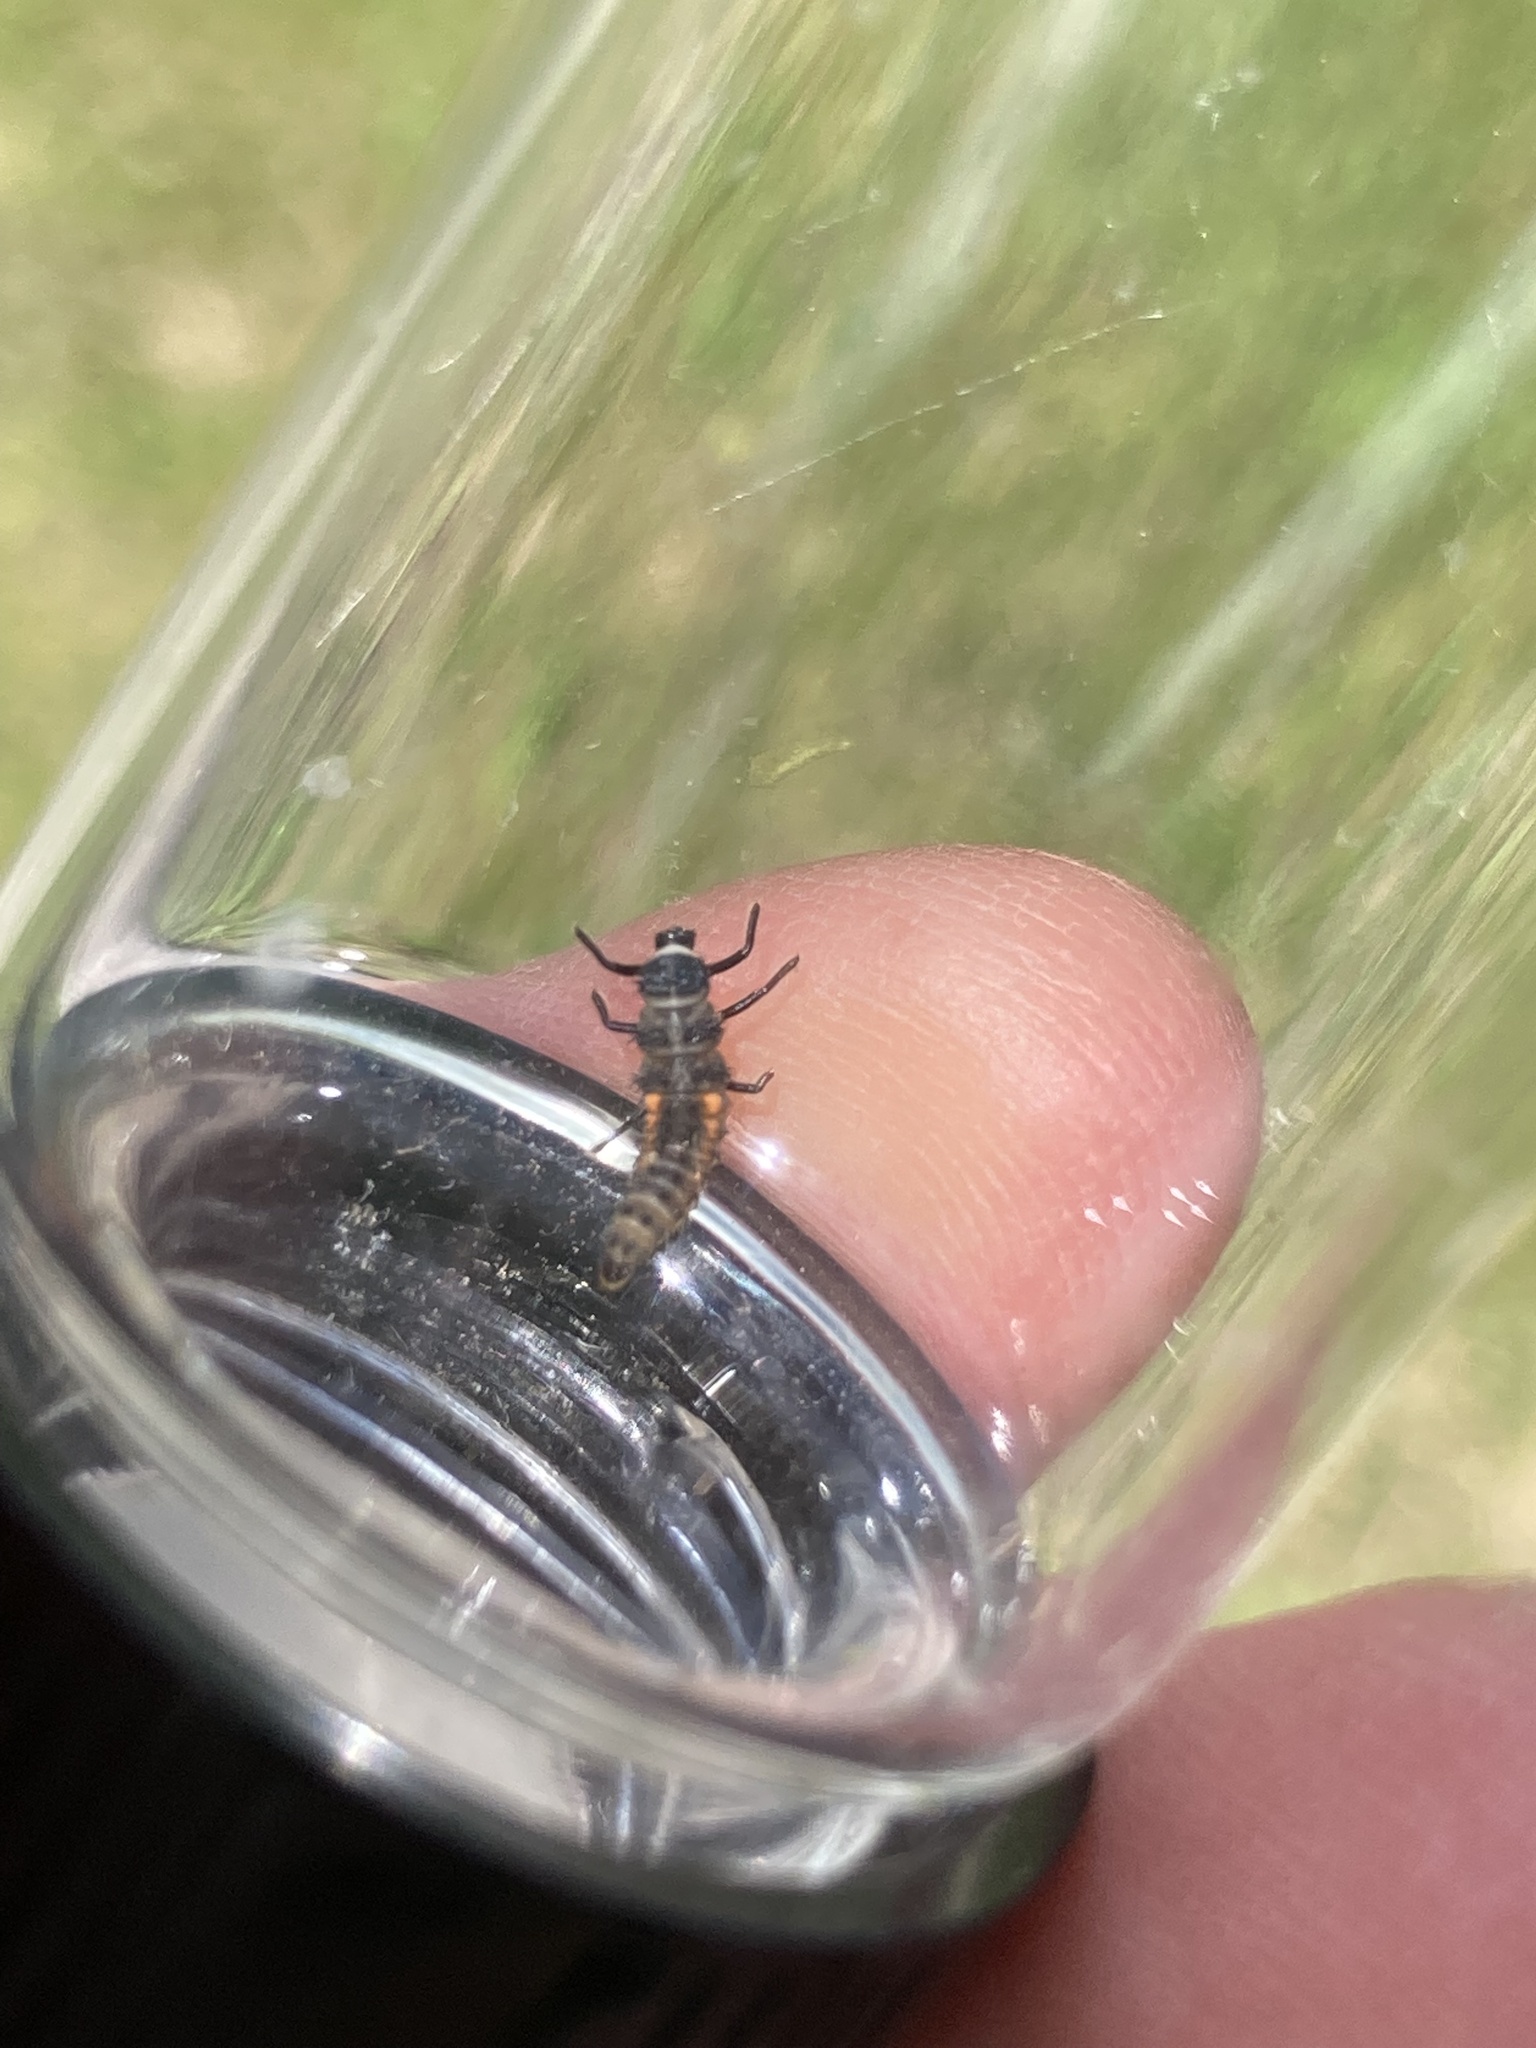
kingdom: Animalia
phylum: Arthropoda
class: Insecta
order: Coleoptera
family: Coccinellidae
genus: Harmonia
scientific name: Harmonia axyridis
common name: Harlequin ladybird
